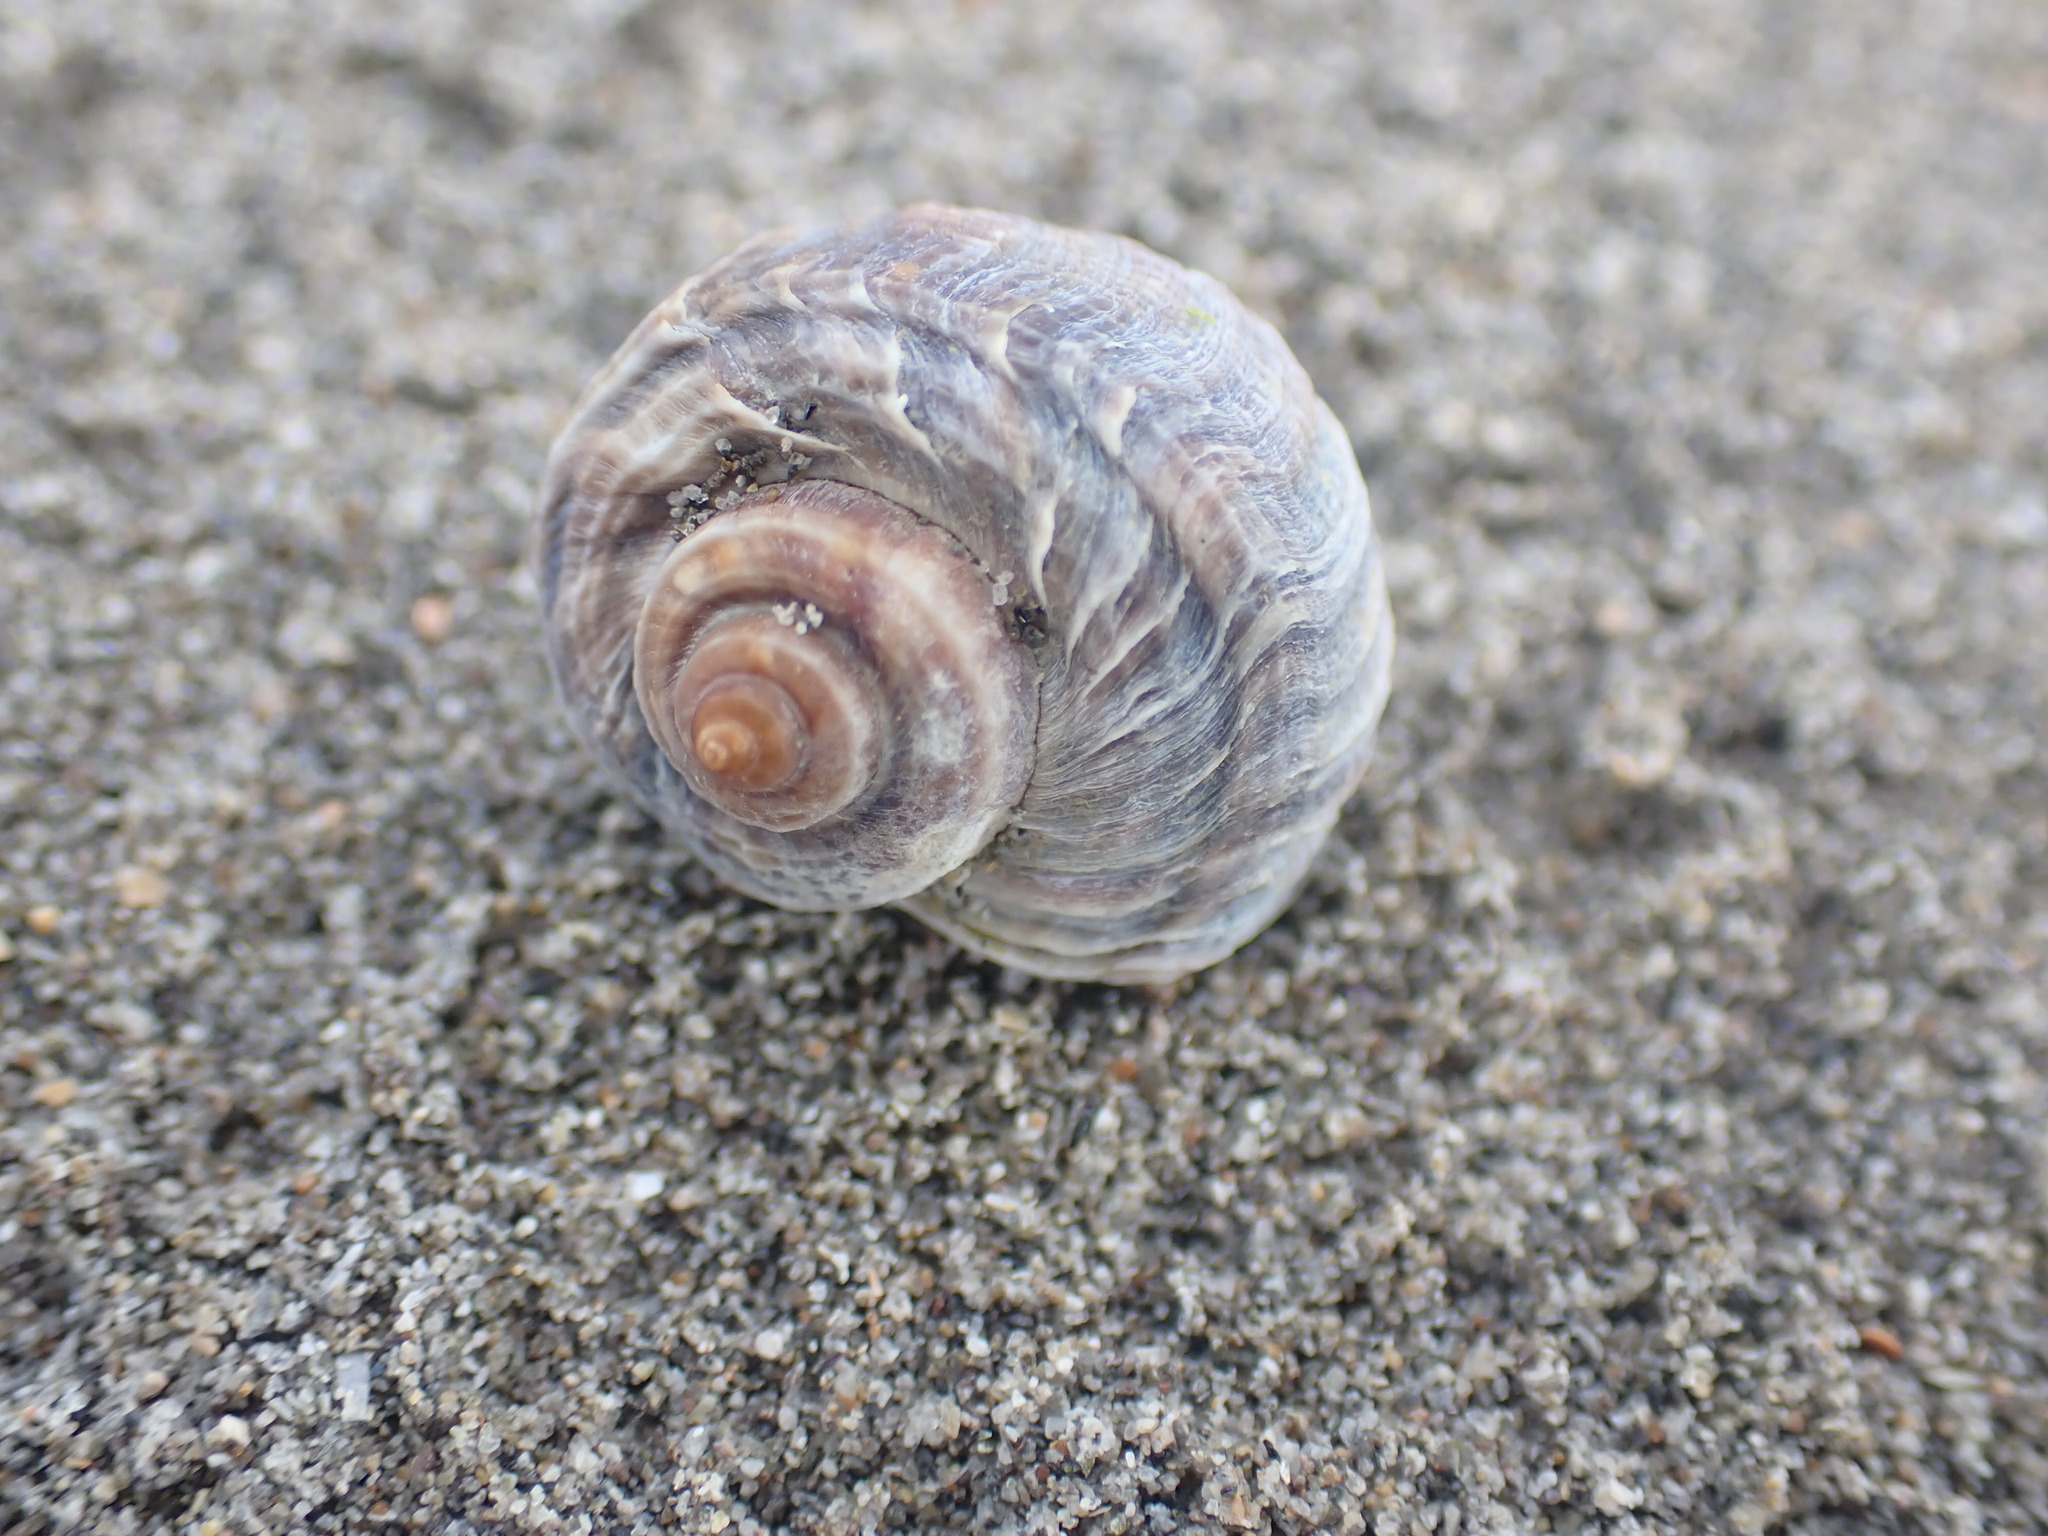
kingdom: Animalia
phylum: Mollusca
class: Gastropoda
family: Amphibolidae
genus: Amphibola
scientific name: Amphibola crenata
